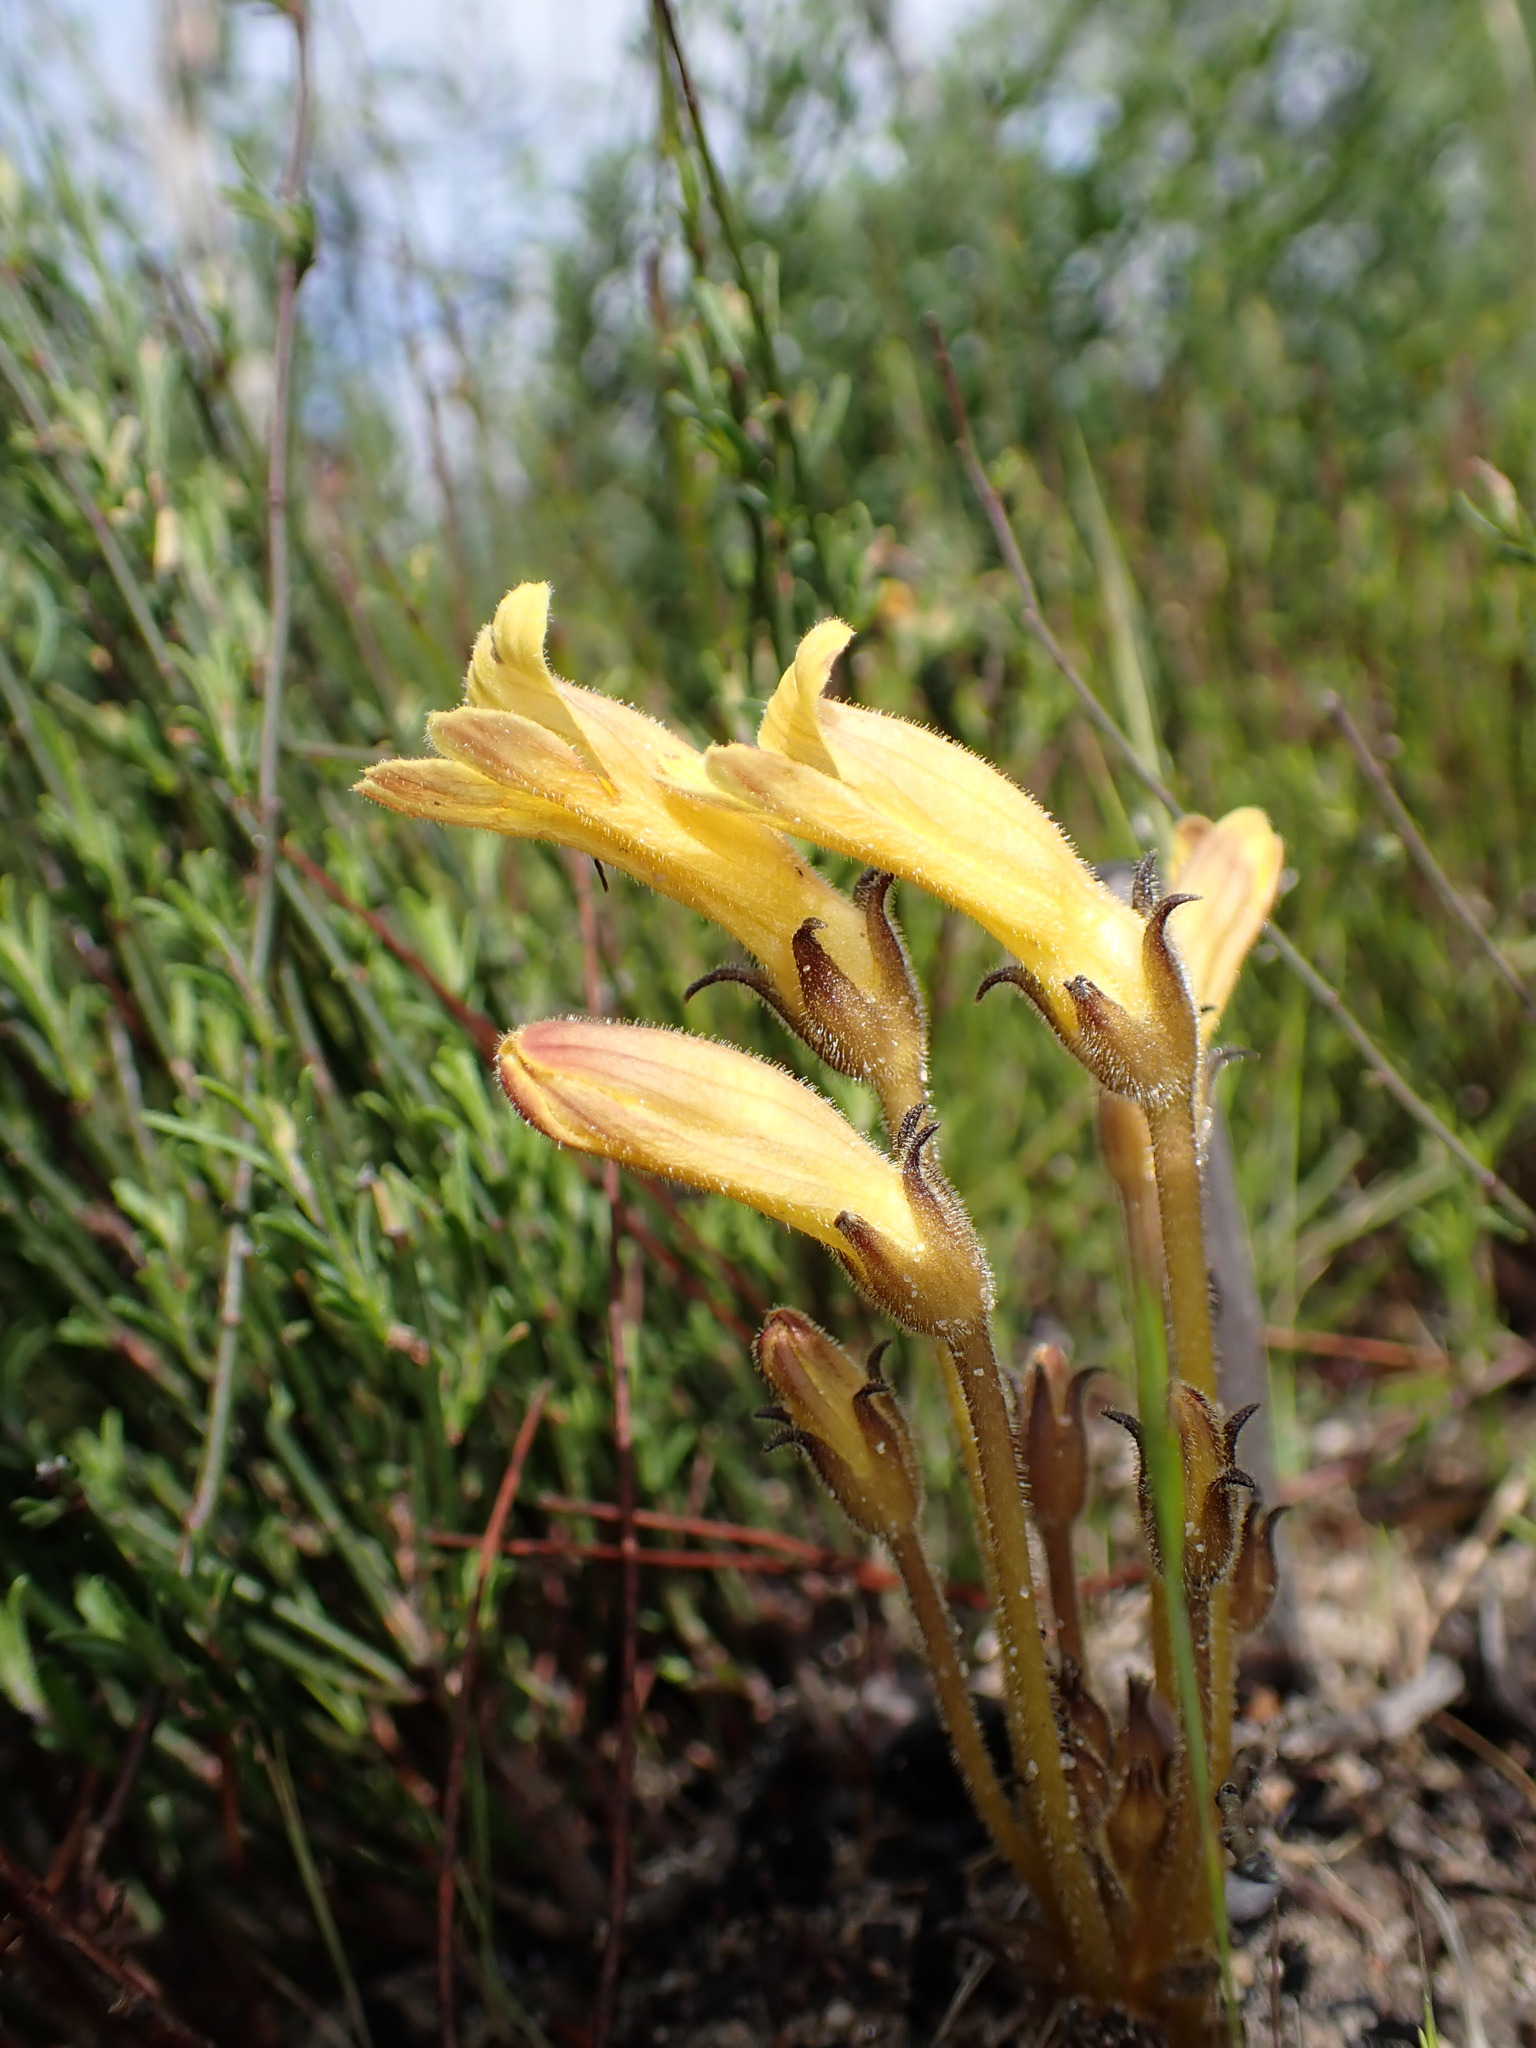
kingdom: Plantae
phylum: Tracheophyta
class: Magnoliopsida
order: Lamiales
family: Orobanchaceae
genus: Aphyllon
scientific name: Aphyllon franciscanum
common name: San francisco broomrape
